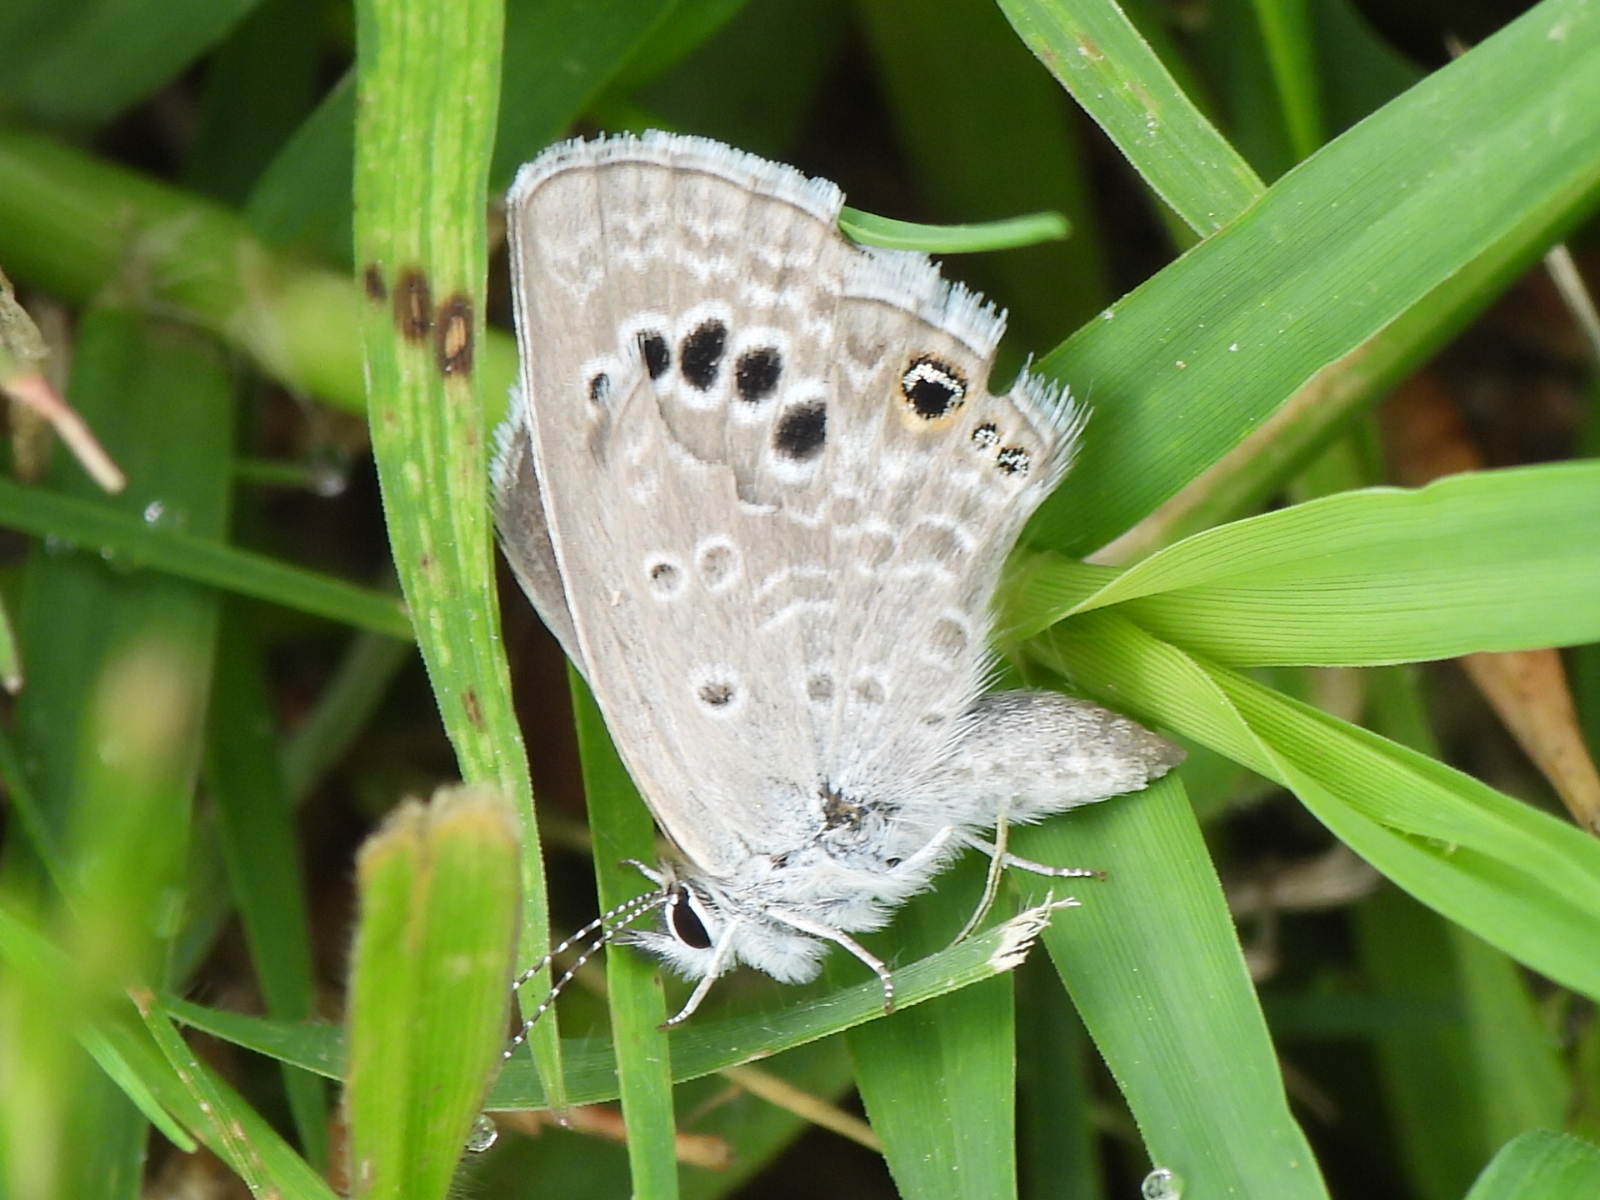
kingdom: Animalia
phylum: Arthropoda
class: Insecta
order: Lepidoptera
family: Lycaenidae
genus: Echinargus
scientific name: Echinargus isola
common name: Reakirt's blue
